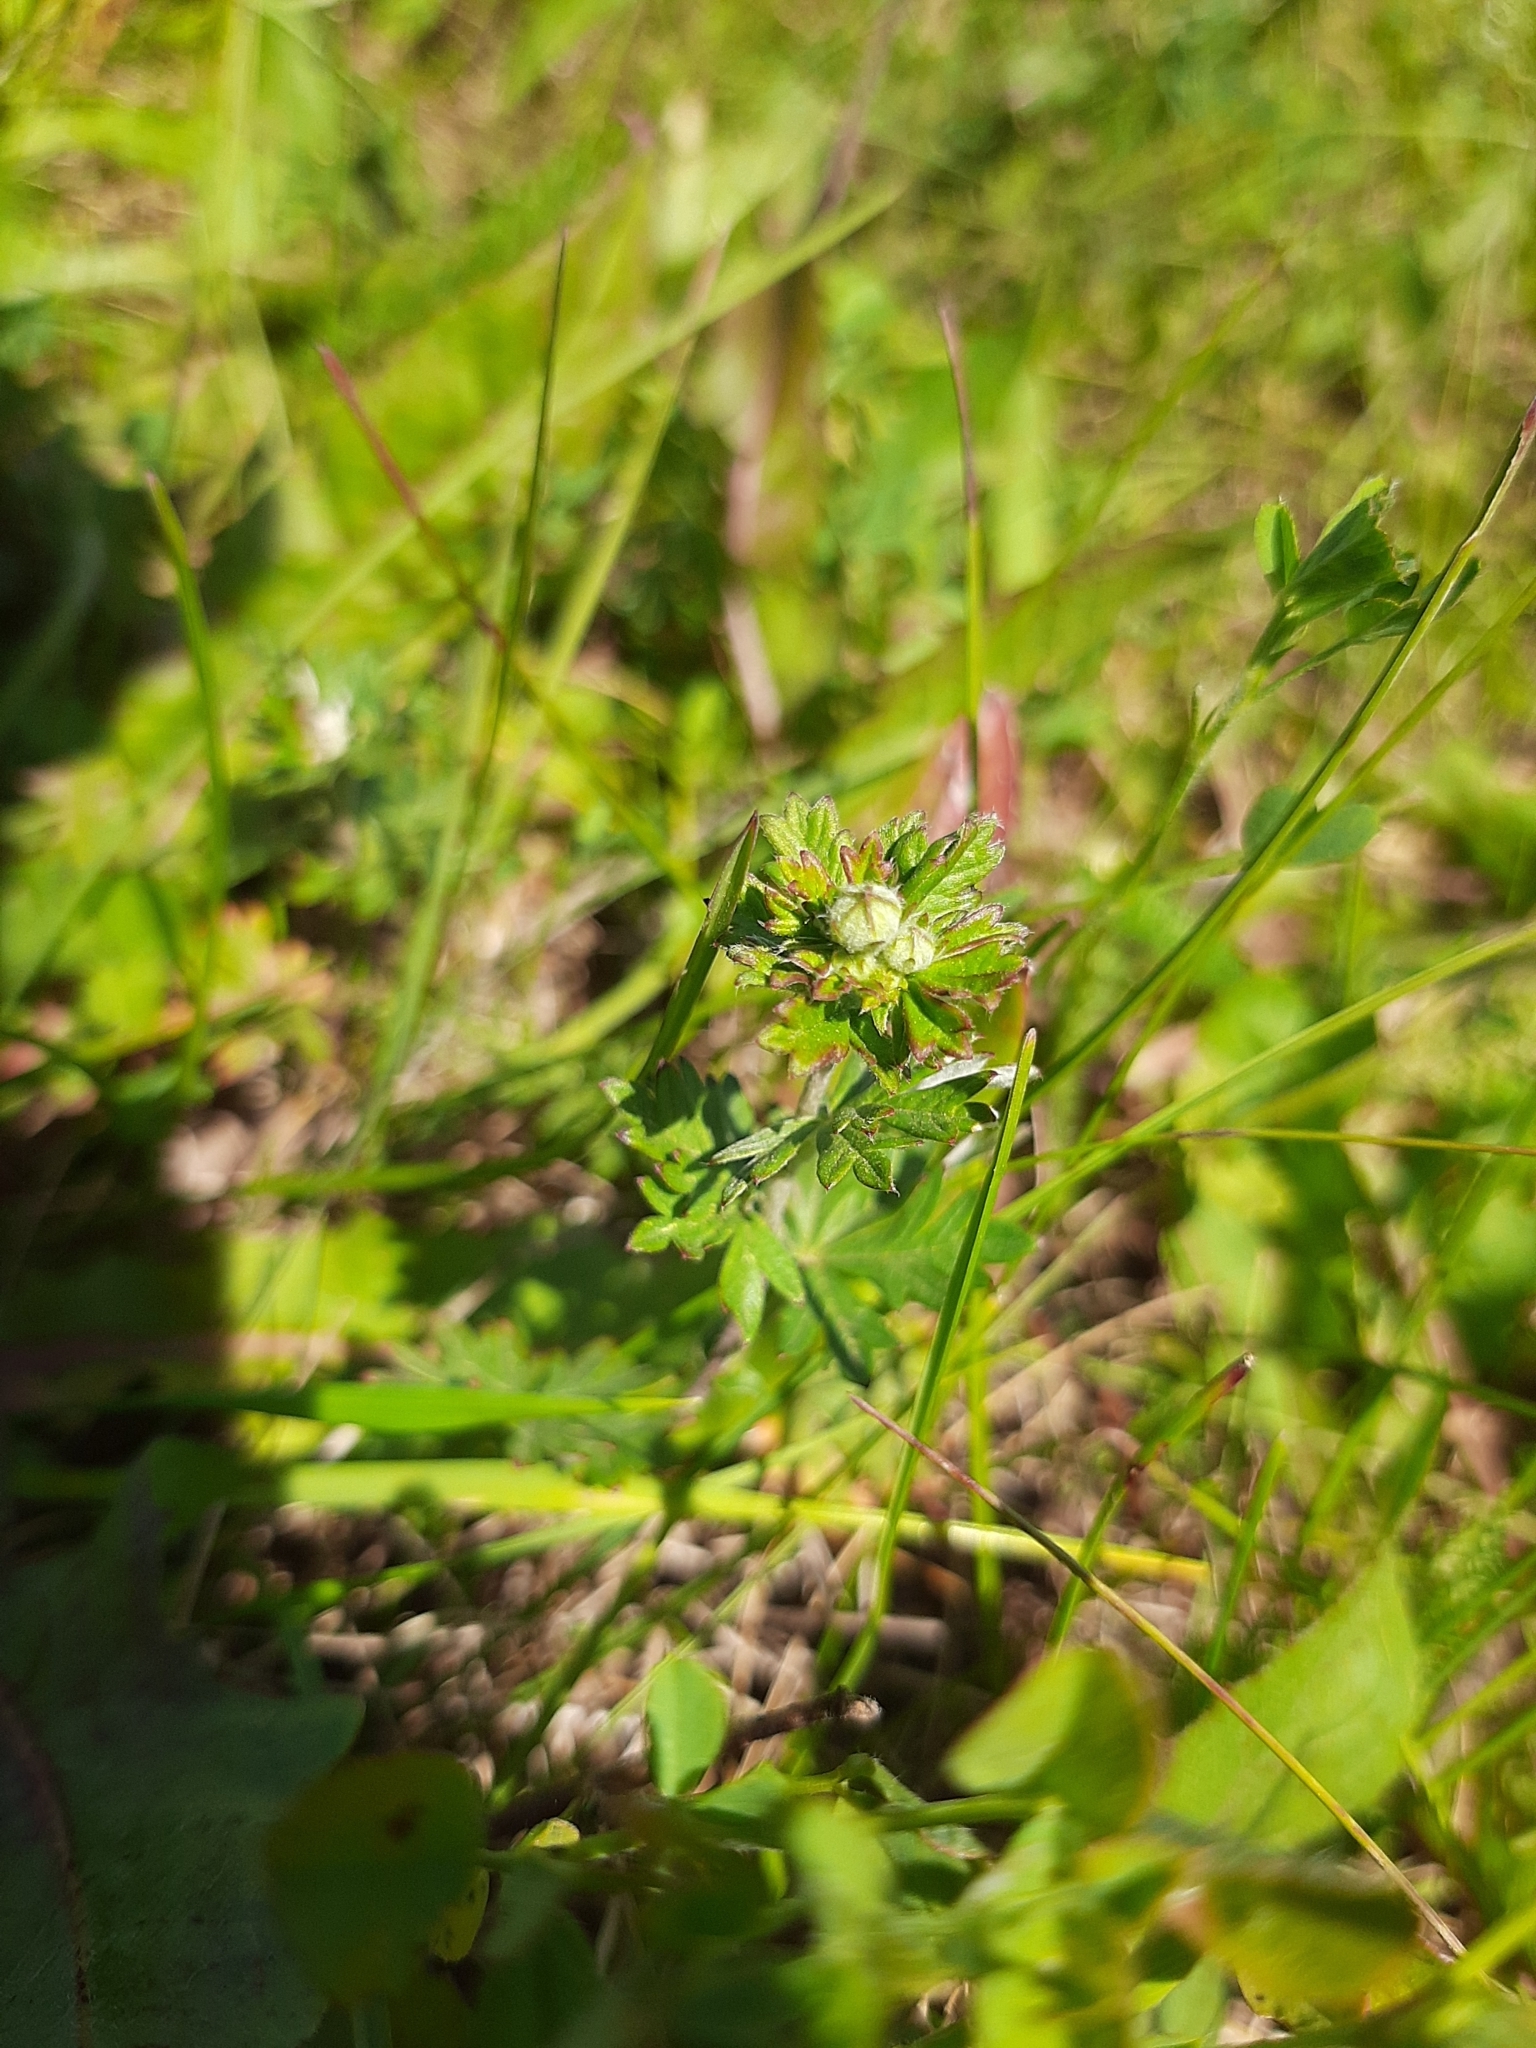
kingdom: Plantae
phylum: Tracheophyta
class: Magnoliopsida
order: Rosales
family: Rosaceae
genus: Potentilla
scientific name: Potentilla argentea
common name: Hoary cinquefoil
